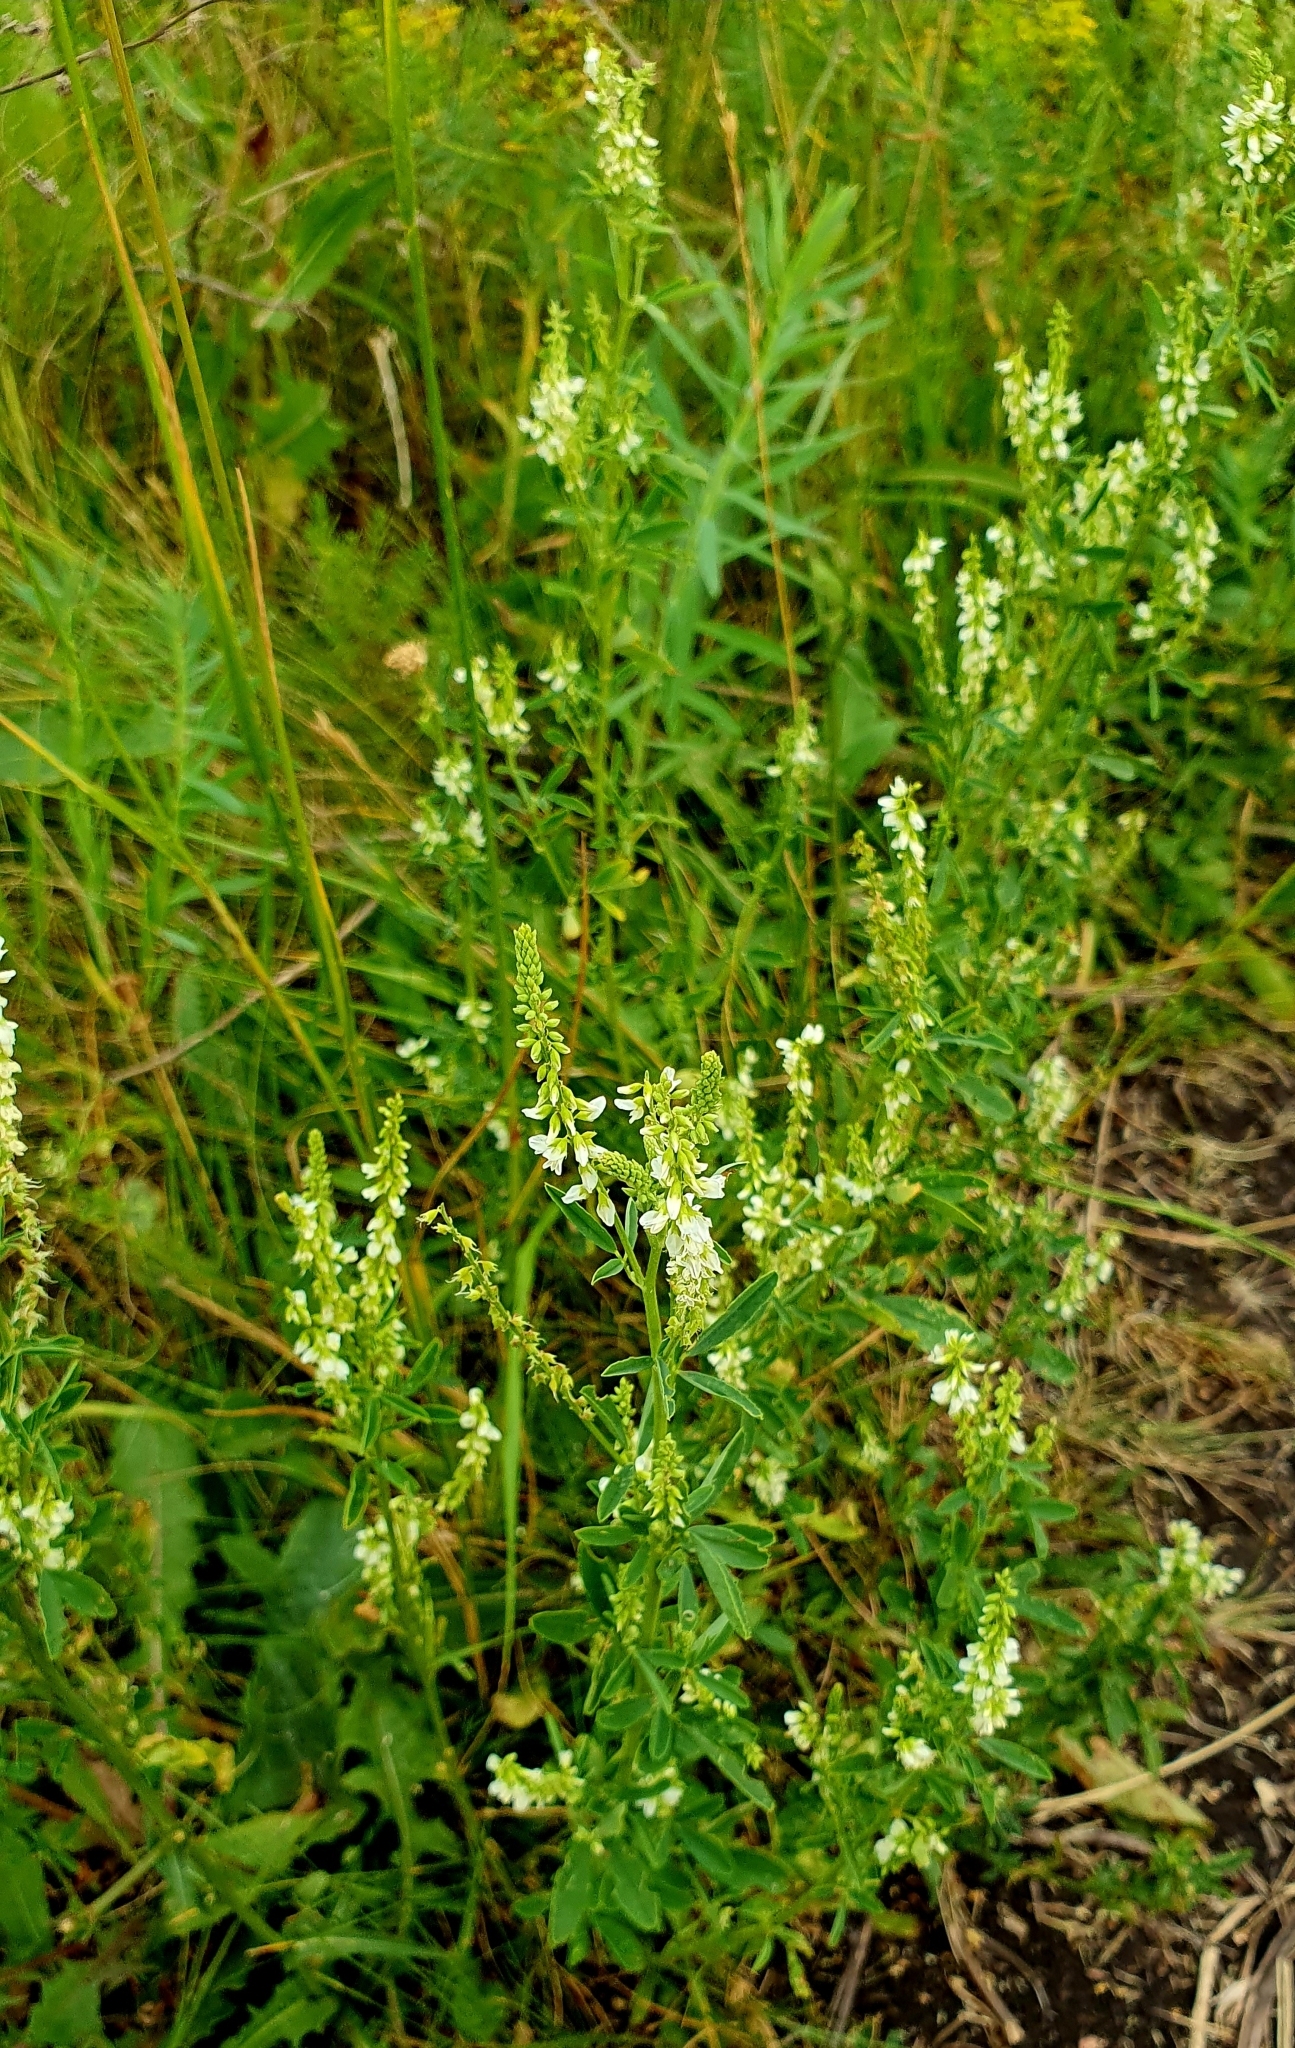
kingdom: Plantae
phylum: Tracheophyta
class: Magnoliopsida
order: Fabales
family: Fabaceae
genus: Melilotus
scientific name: Melilotus albus
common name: White melilot
